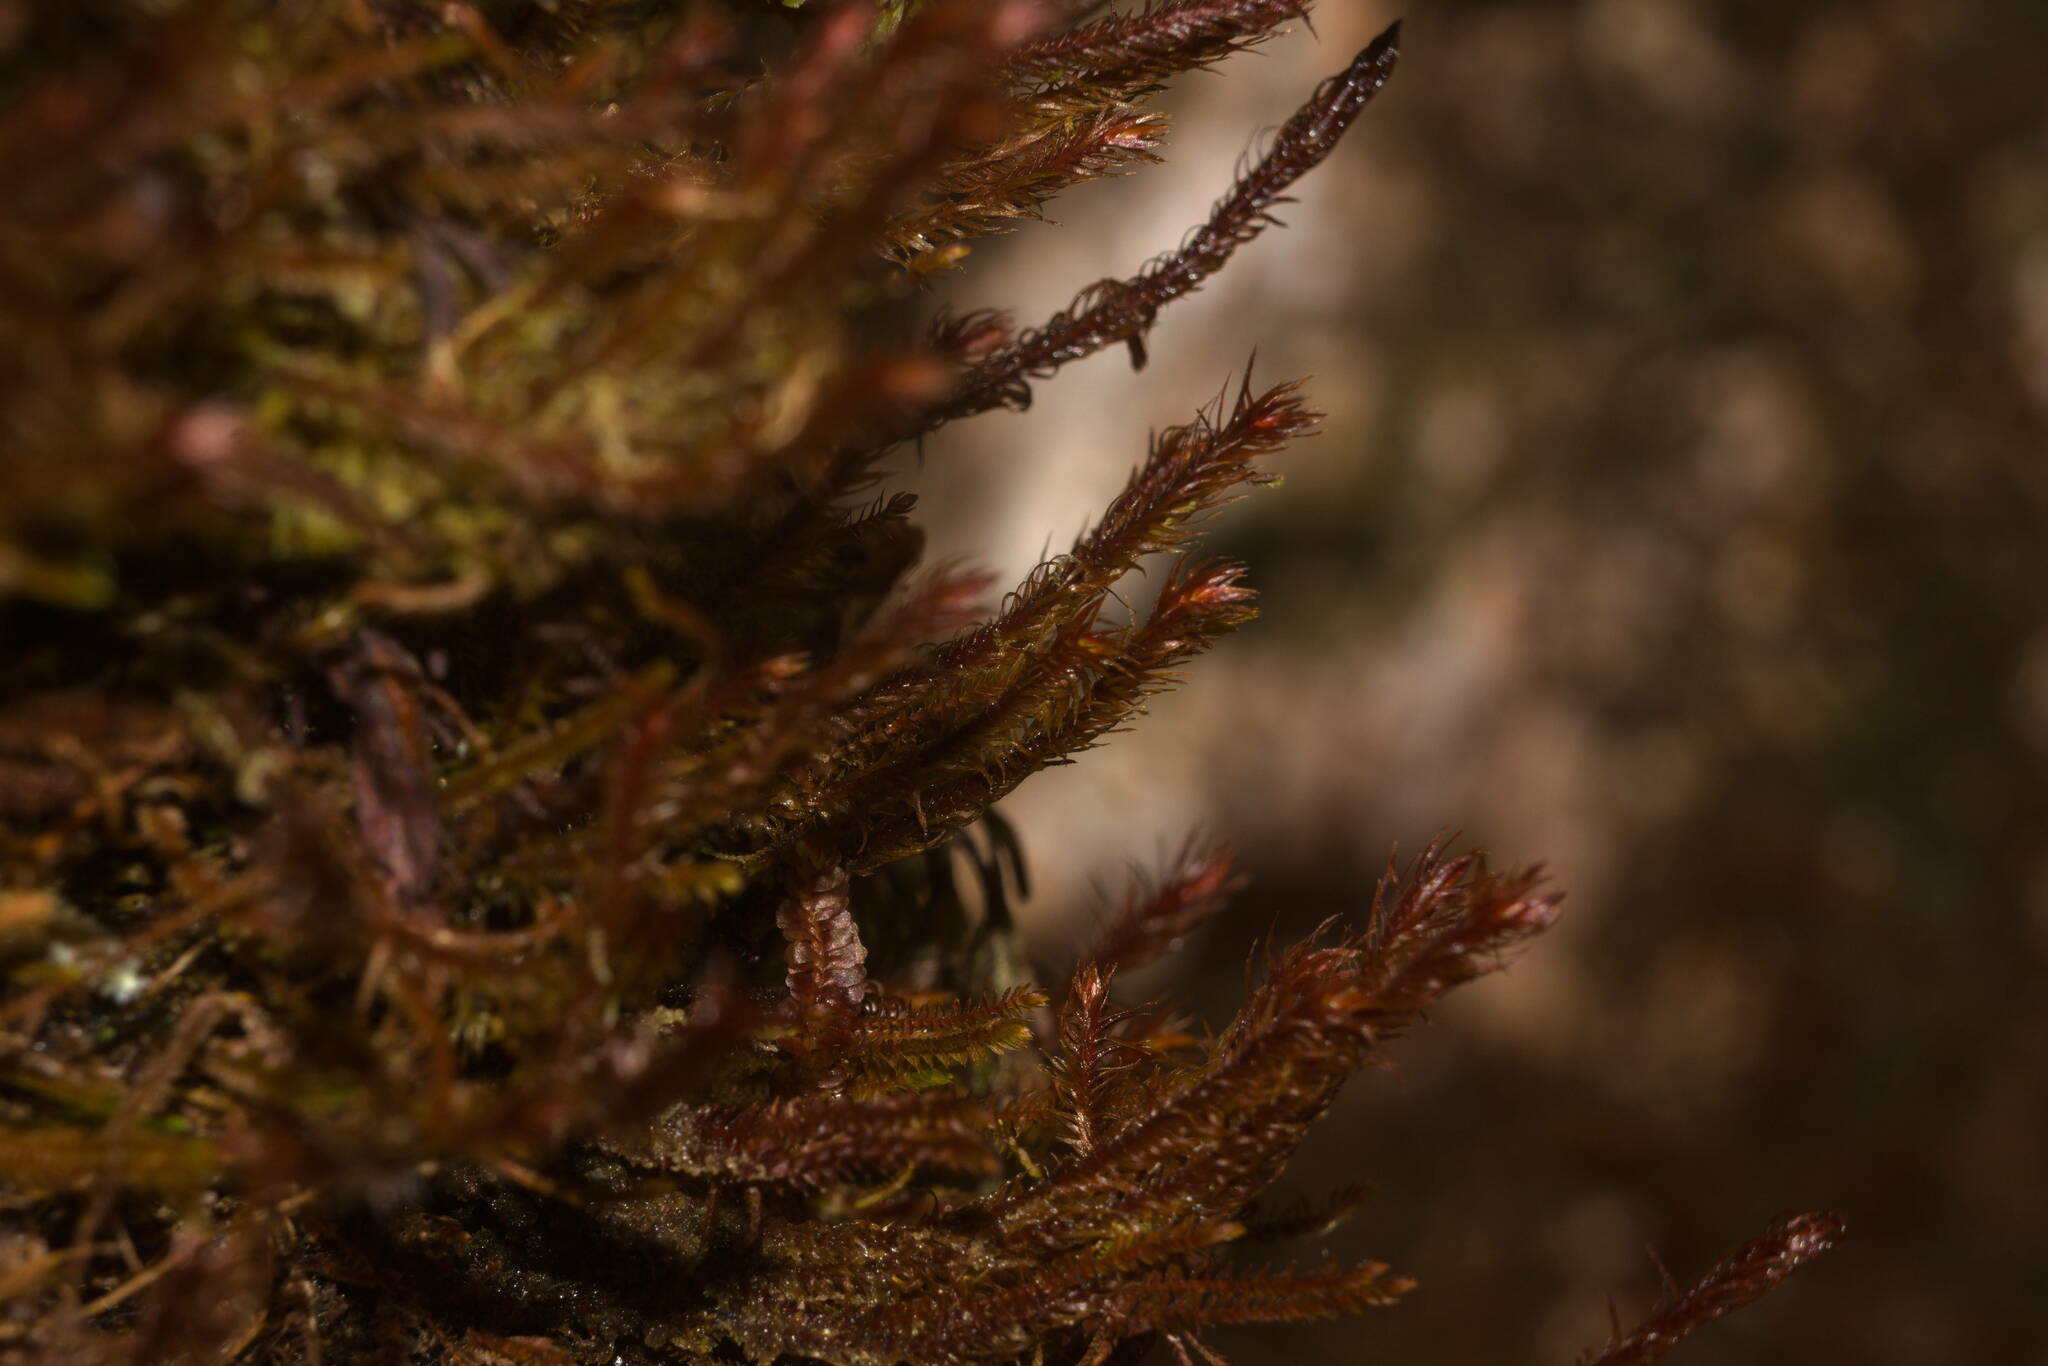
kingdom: Plantae
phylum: Marchantiophyta
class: Jungermanniopsida
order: Jungermanniales
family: Herbertaceae
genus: Herbertus
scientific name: Herbertus aduncus
